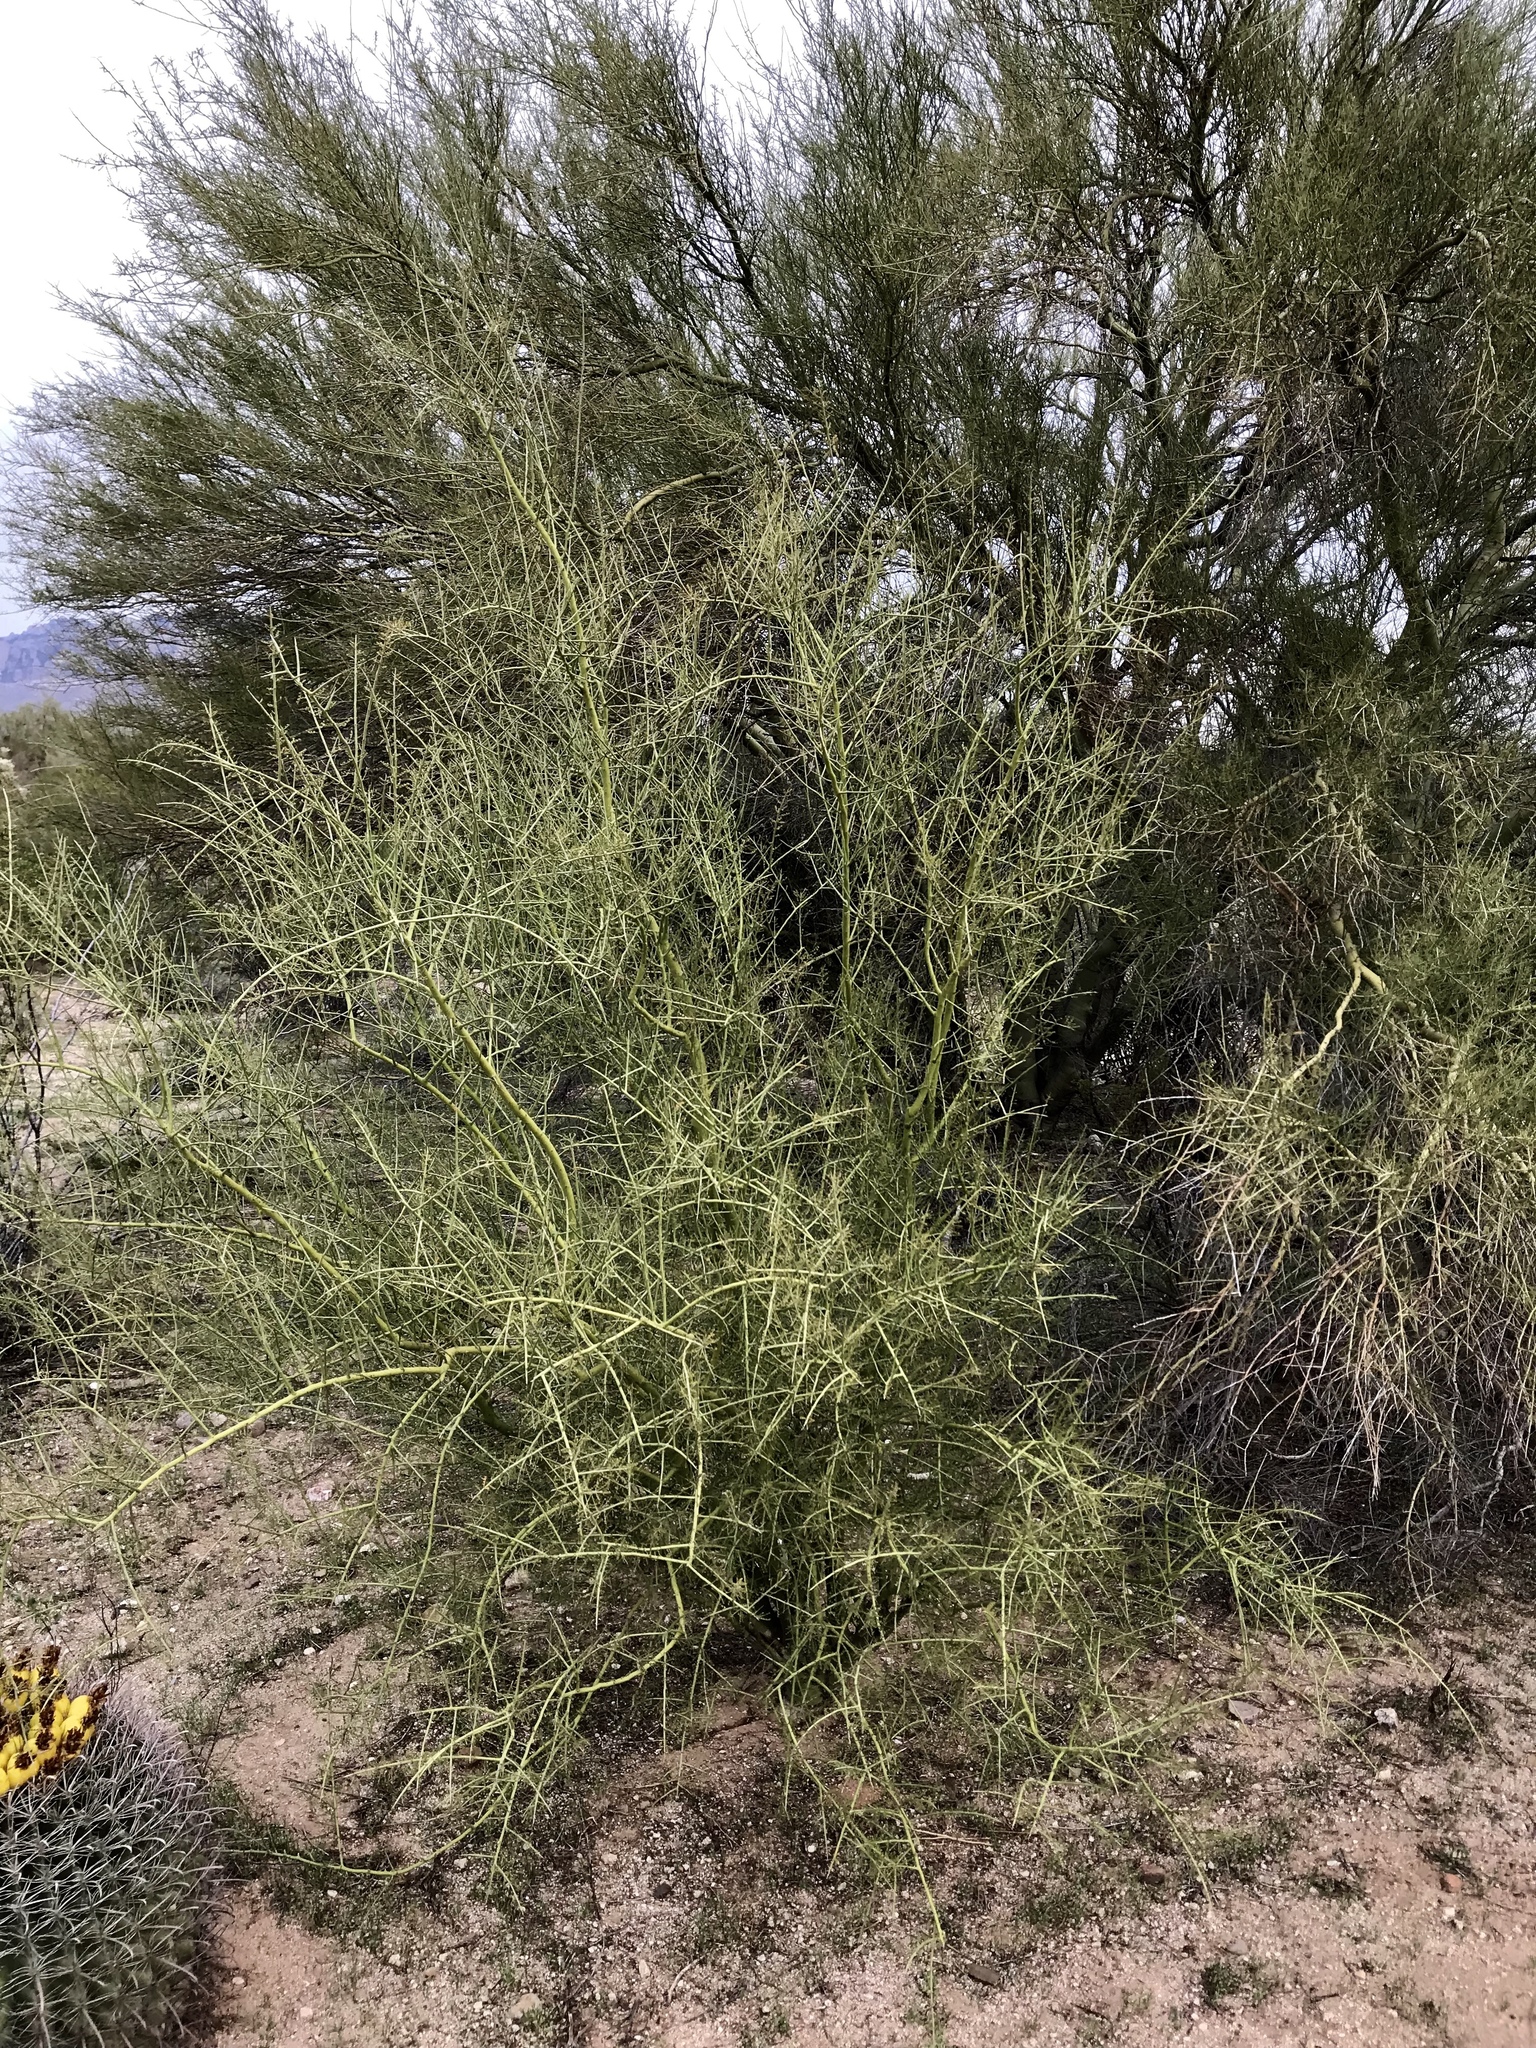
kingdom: Plantae
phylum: Tracheophyta
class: Magnoliopsida
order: Fabales
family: Fabaceae
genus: Parkinsonia
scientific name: Parkinsonia microphylla
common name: Yellow paloverde
